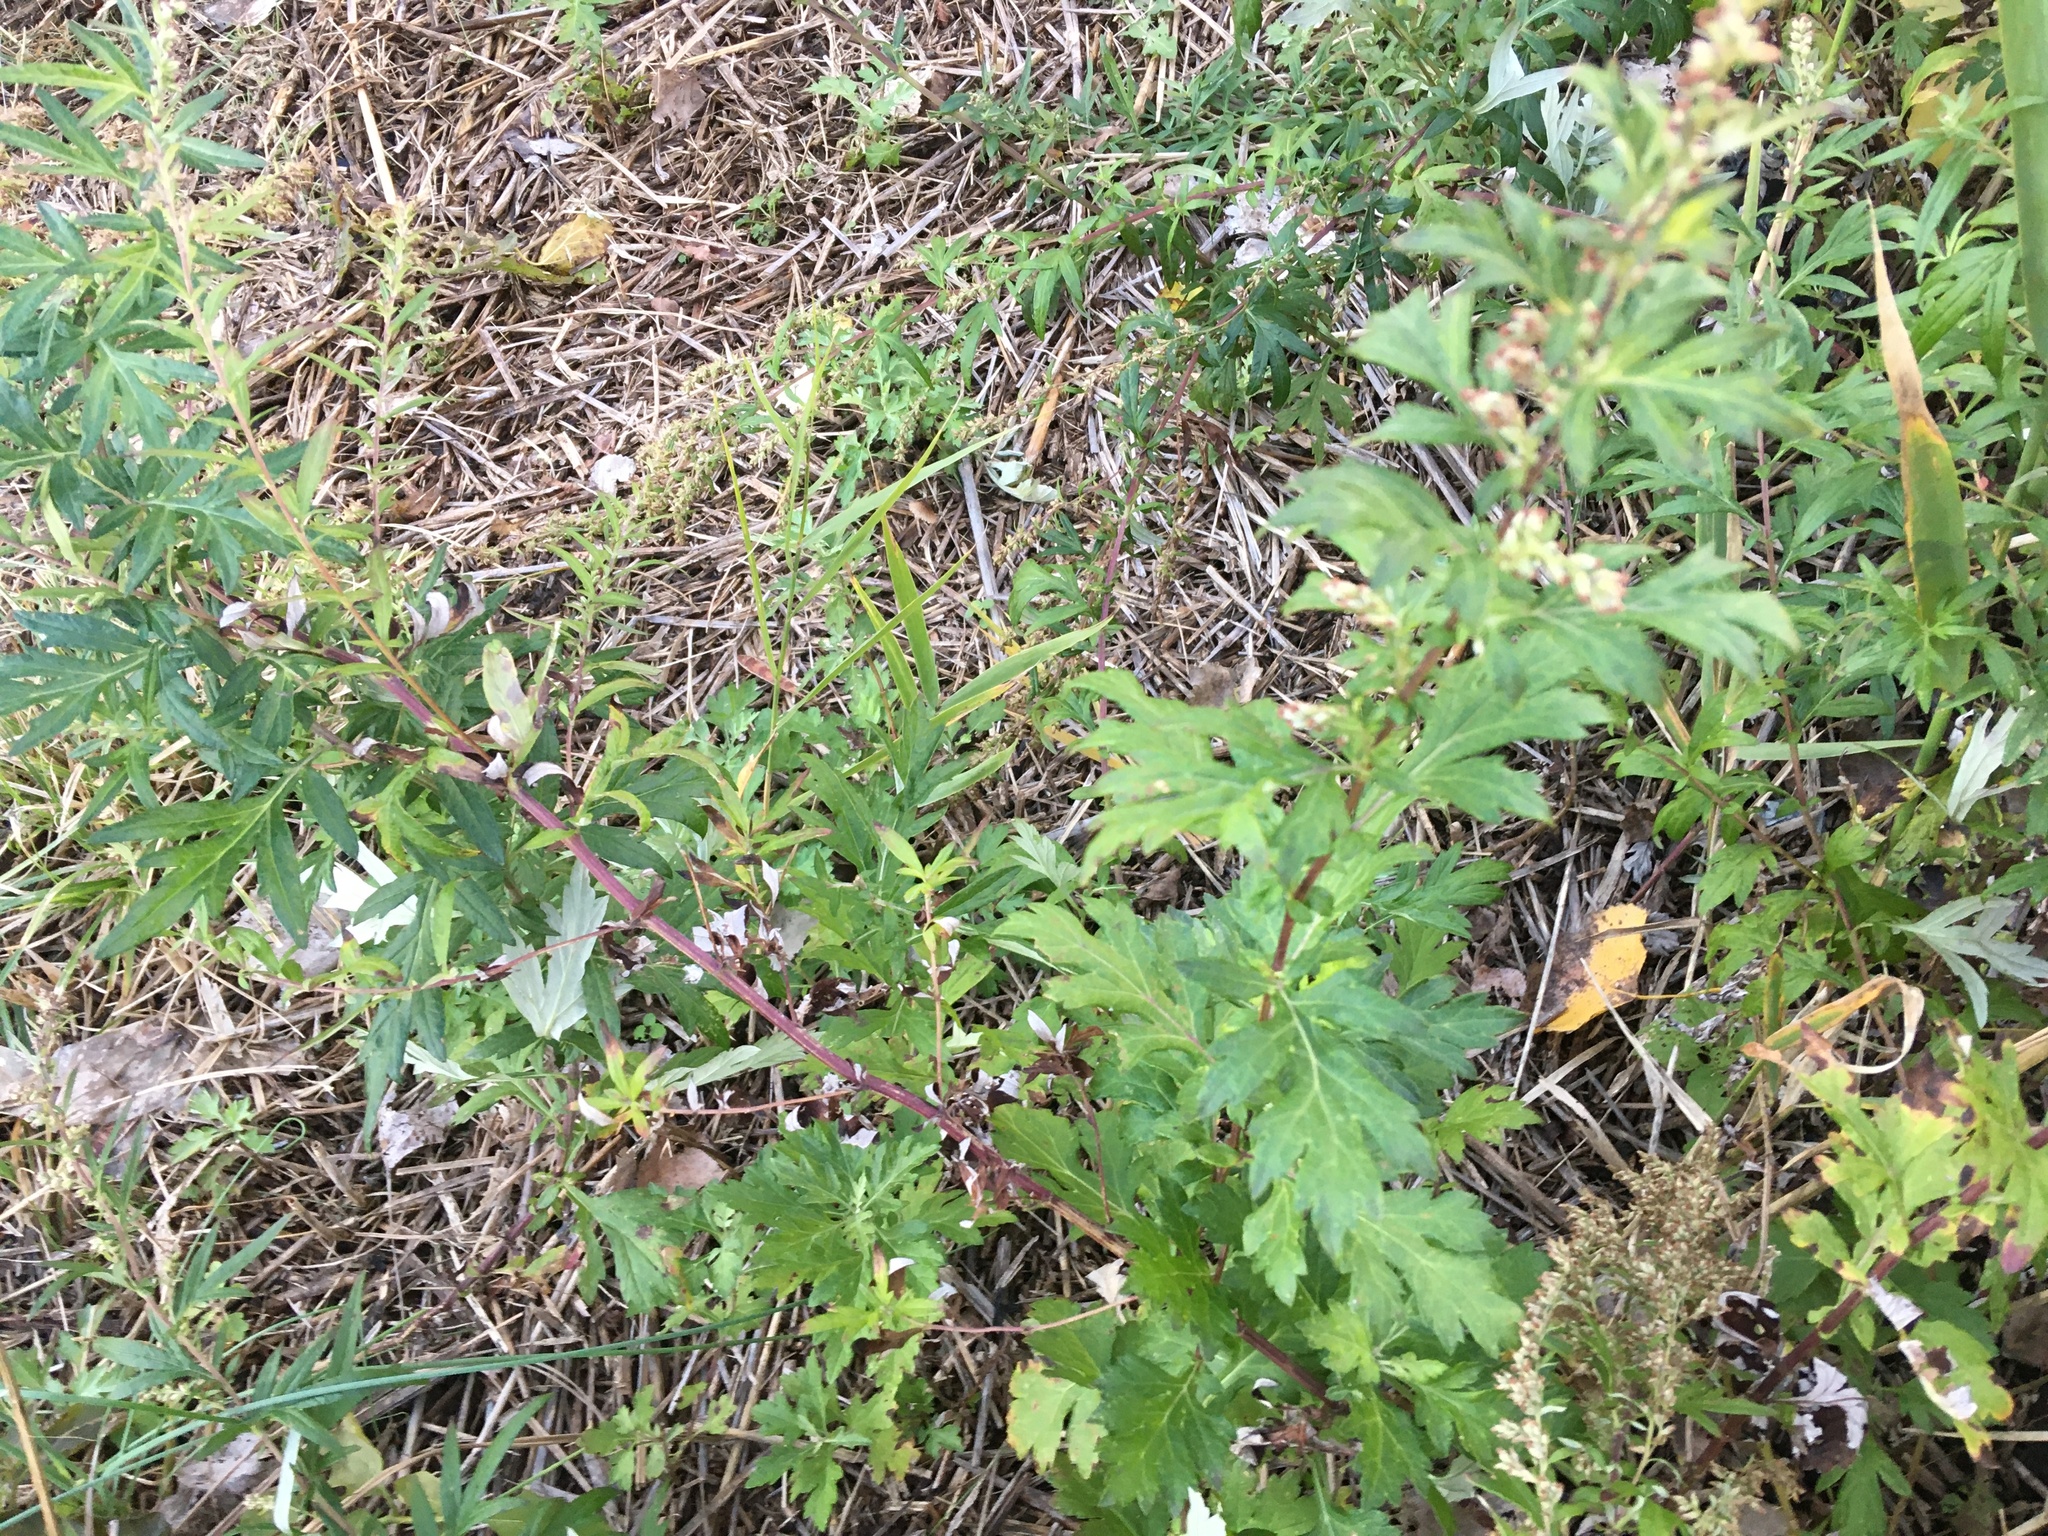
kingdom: Plantae
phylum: Tracheophyta
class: Magnoliopsida
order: Asterales
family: Asteraceae
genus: Artemisia
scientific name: Artemisia vulgaris
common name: Mugwort
